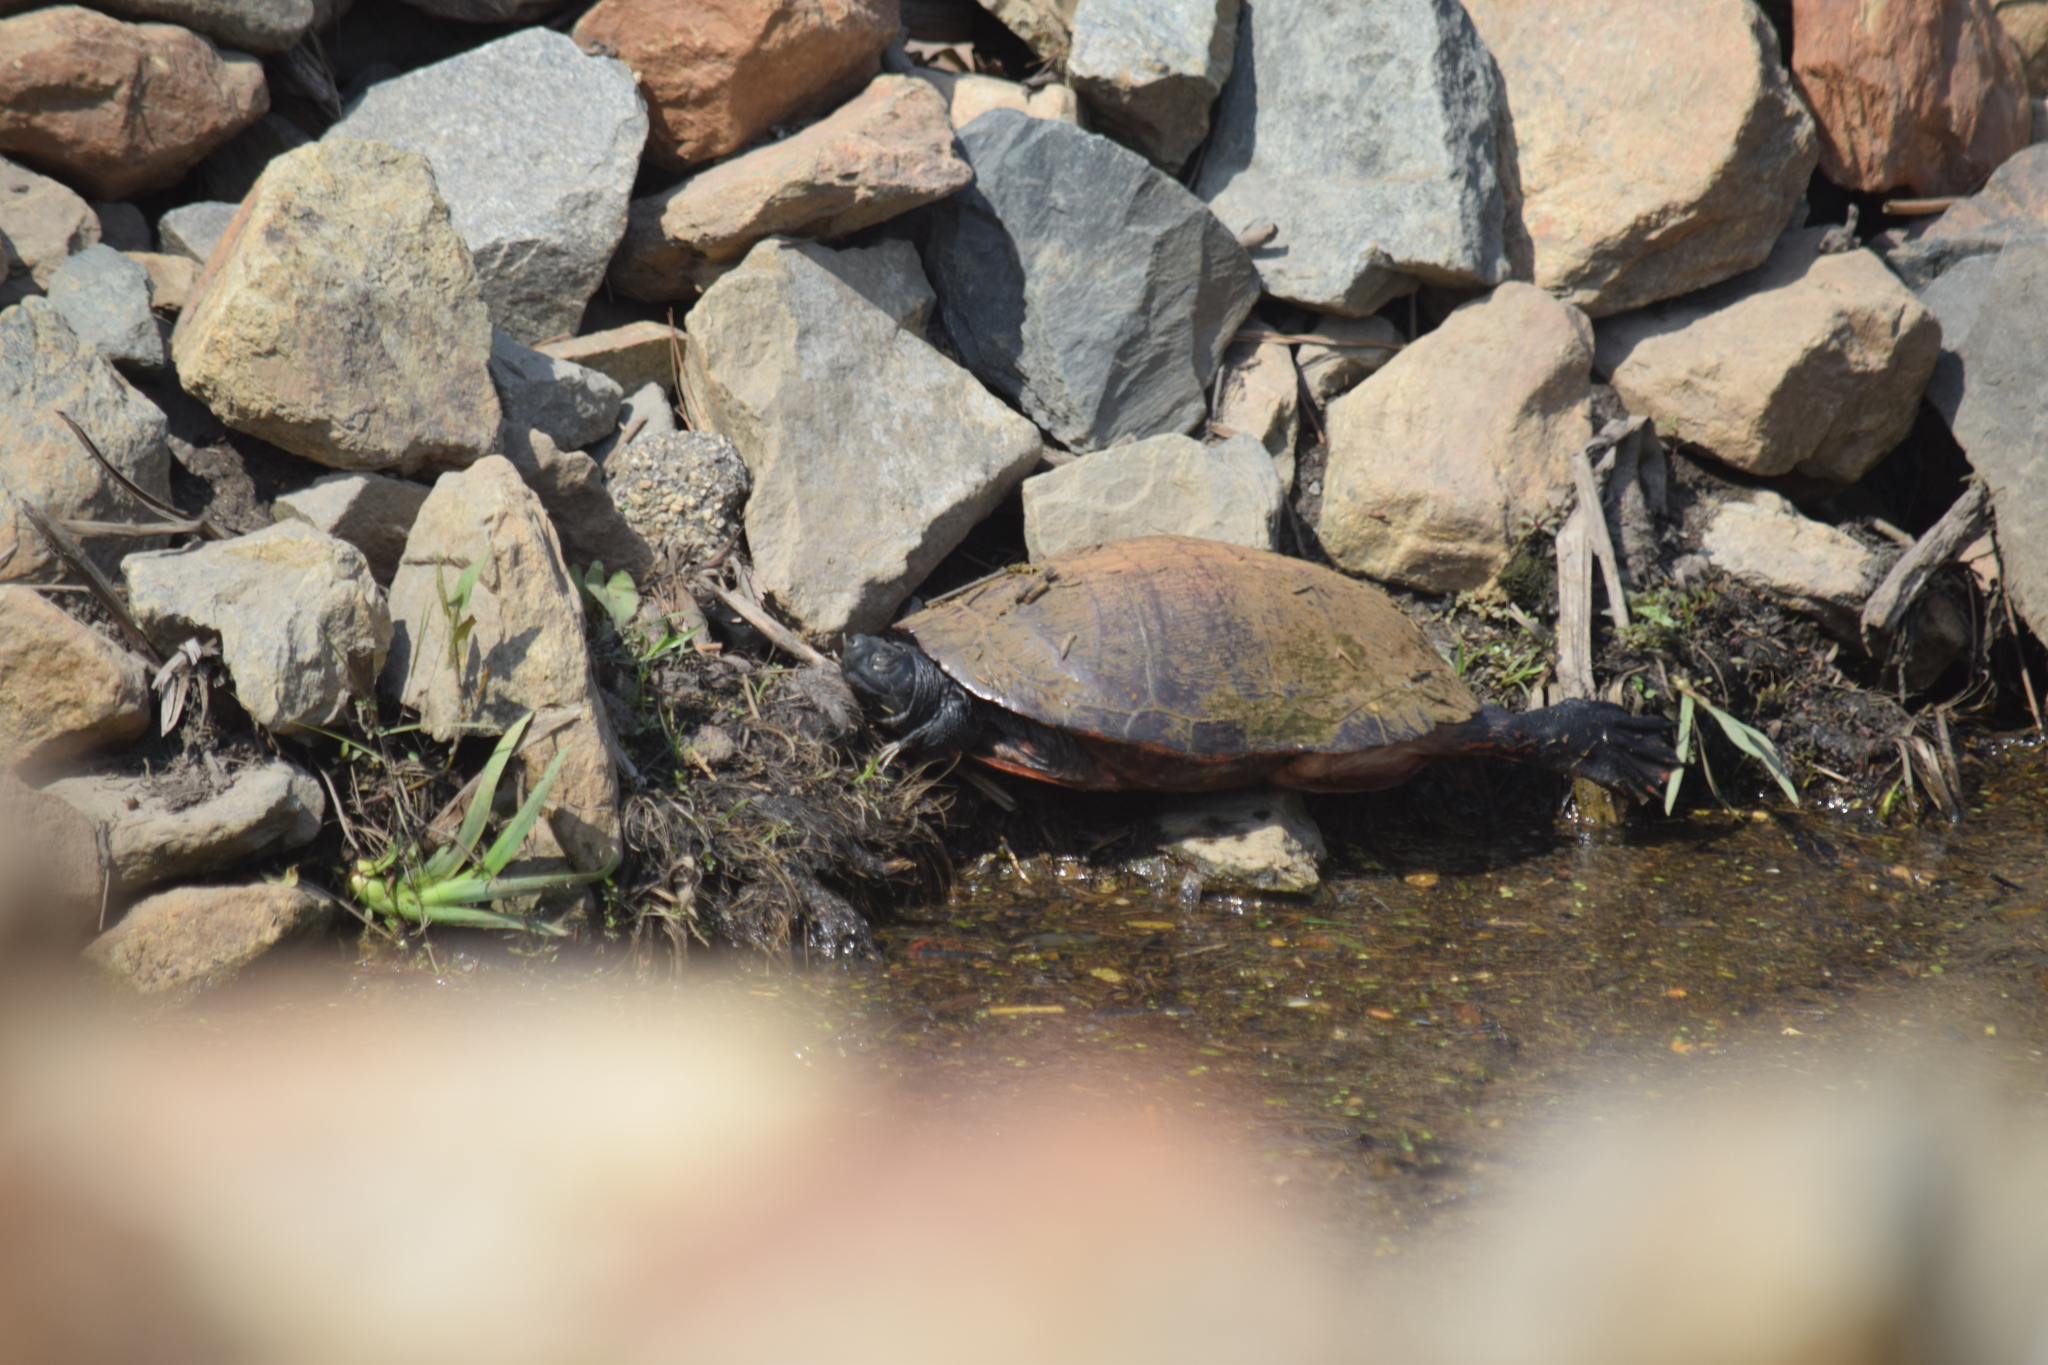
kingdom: Animalia
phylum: Chordata
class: Testudines
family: Emydidae
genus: Pseudemys
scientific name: Pseudemys rubriventris
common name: American red-bellied turtle
